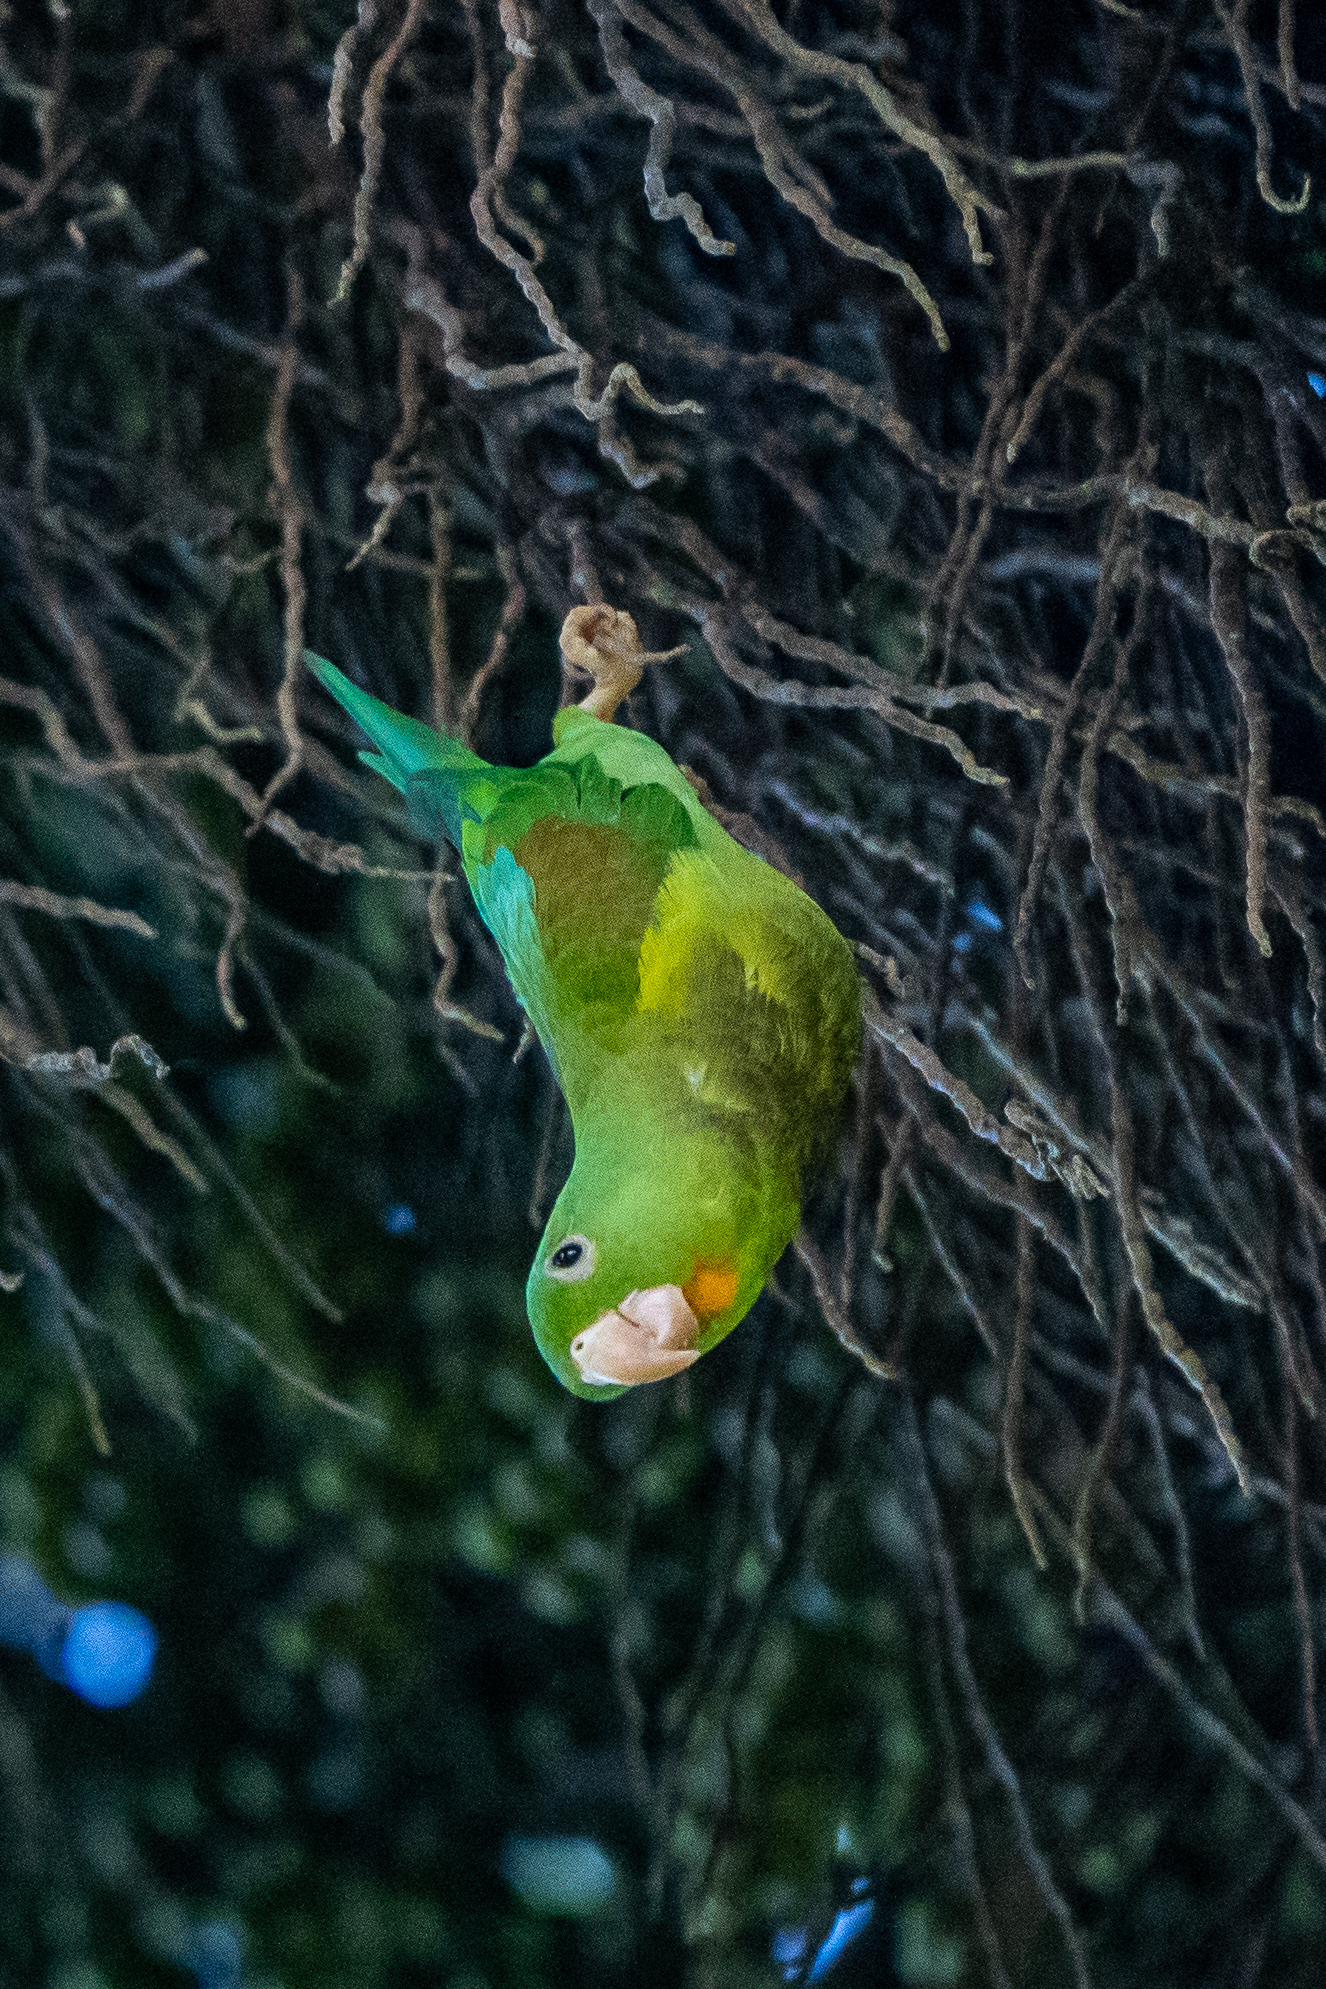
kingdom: Animalia
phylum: Chordata
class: Aves
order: Psittaciformes
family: Psittacidae
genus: Brotogeris
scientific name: Brotogeris jugularis
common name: Orange-chinned parakeet
